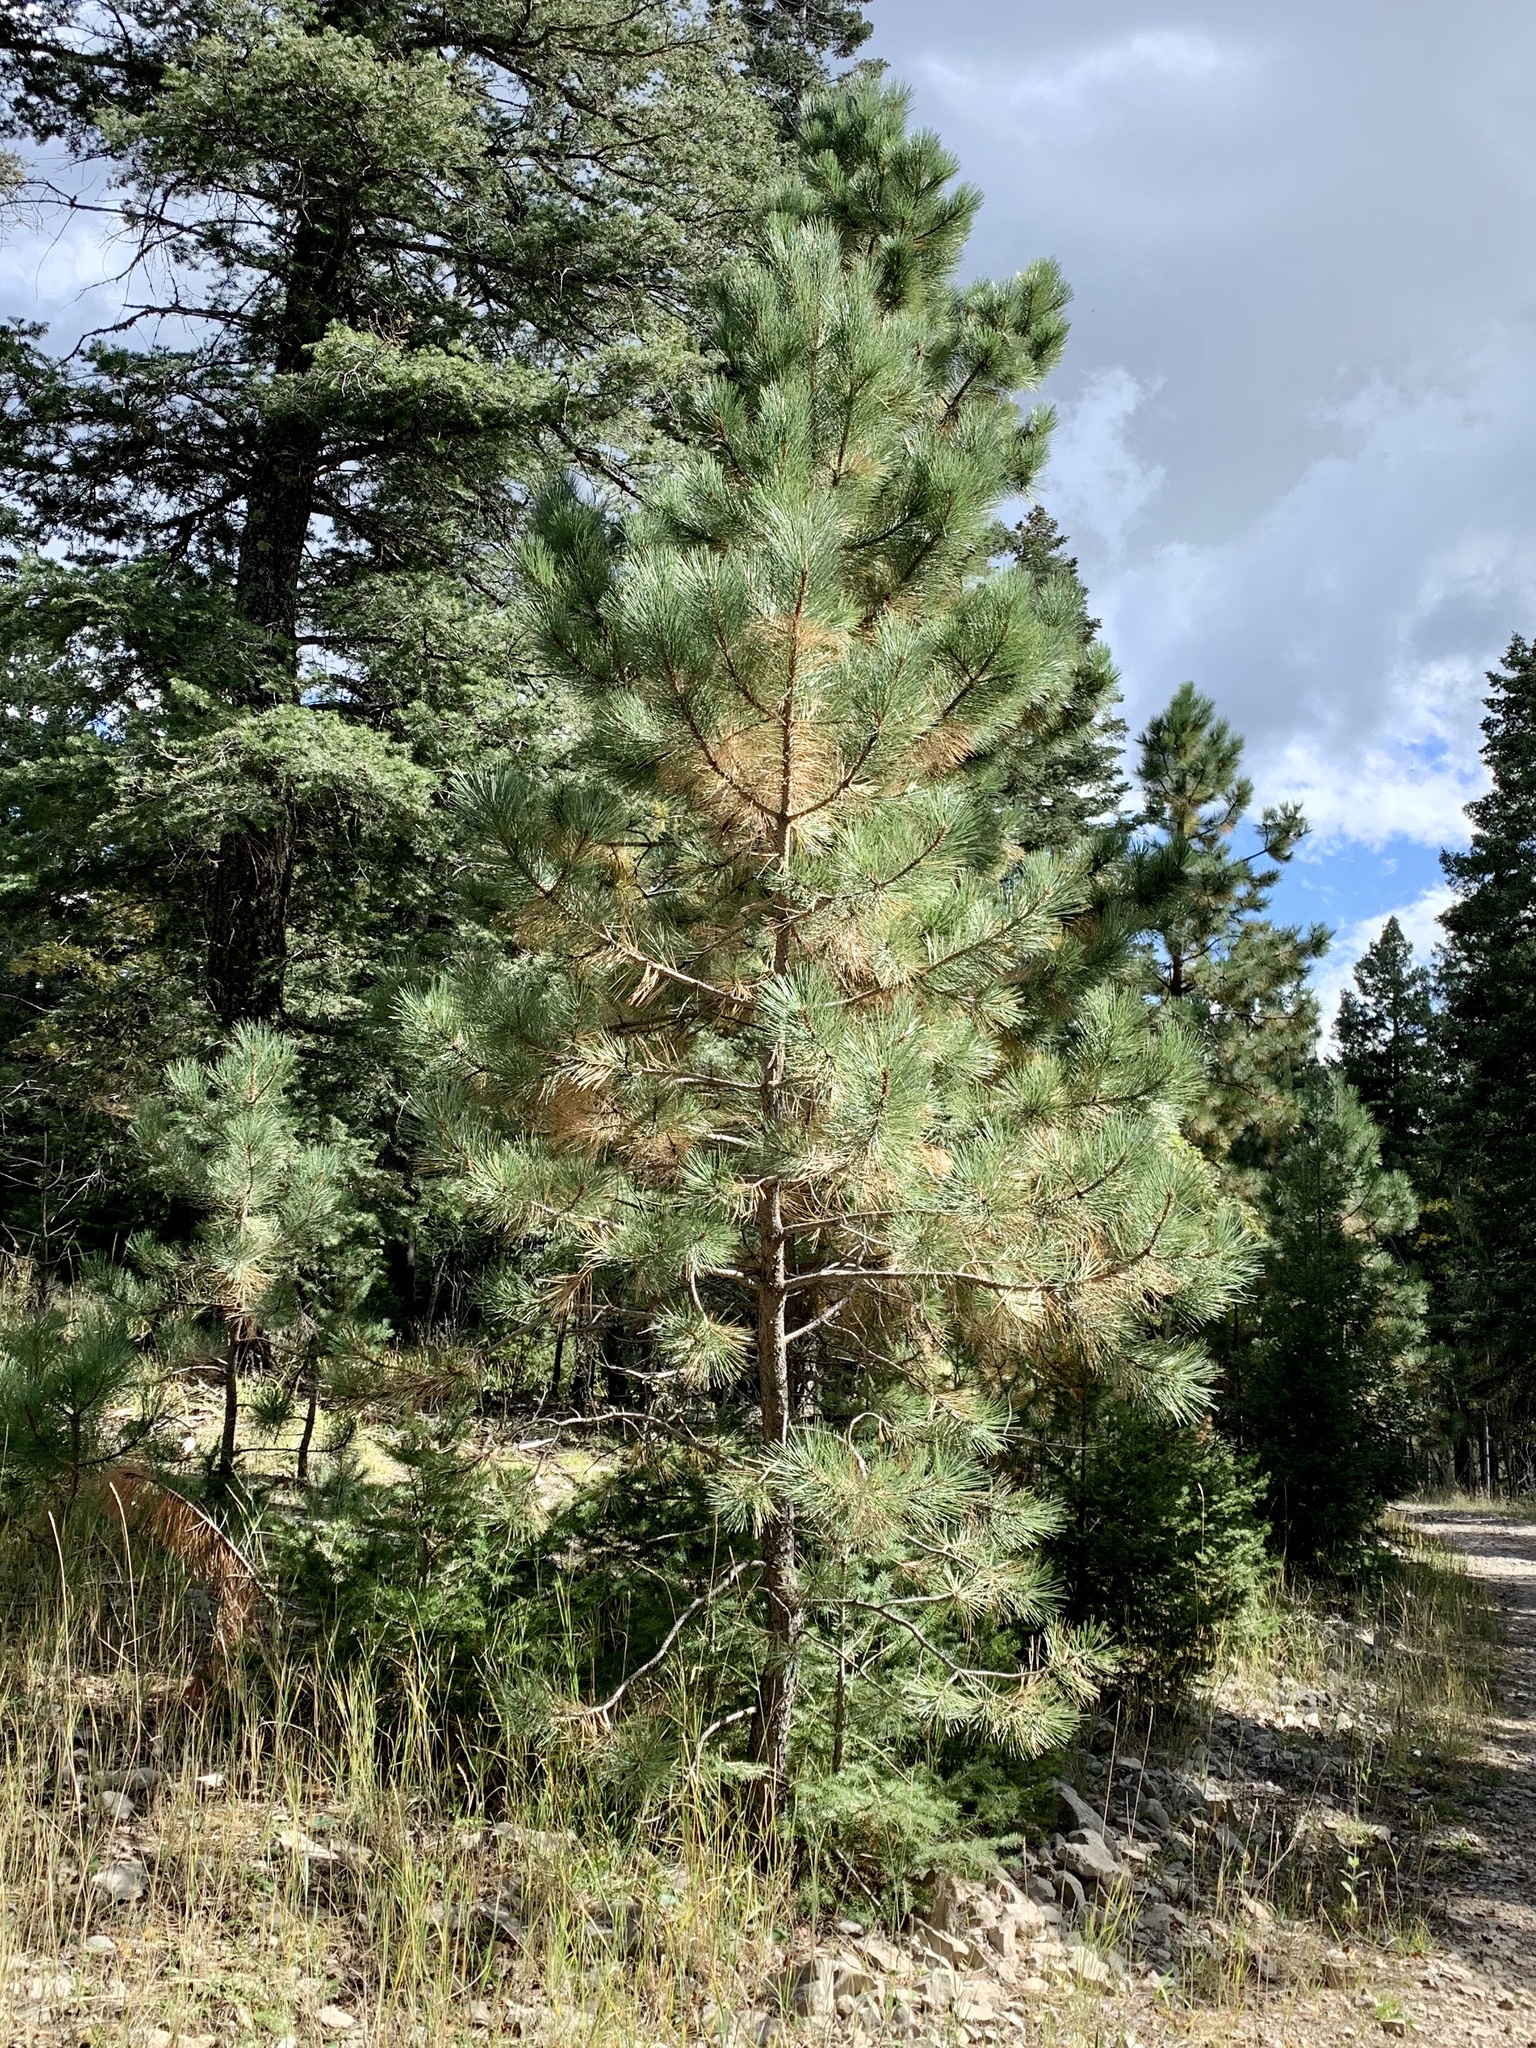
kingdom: Plantae
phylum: Tracheophyta
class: Pinopsida
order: Pinales
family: Pinaceae
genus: Pinus
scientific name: Pinus ponderosa
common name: Western yellow-pine
